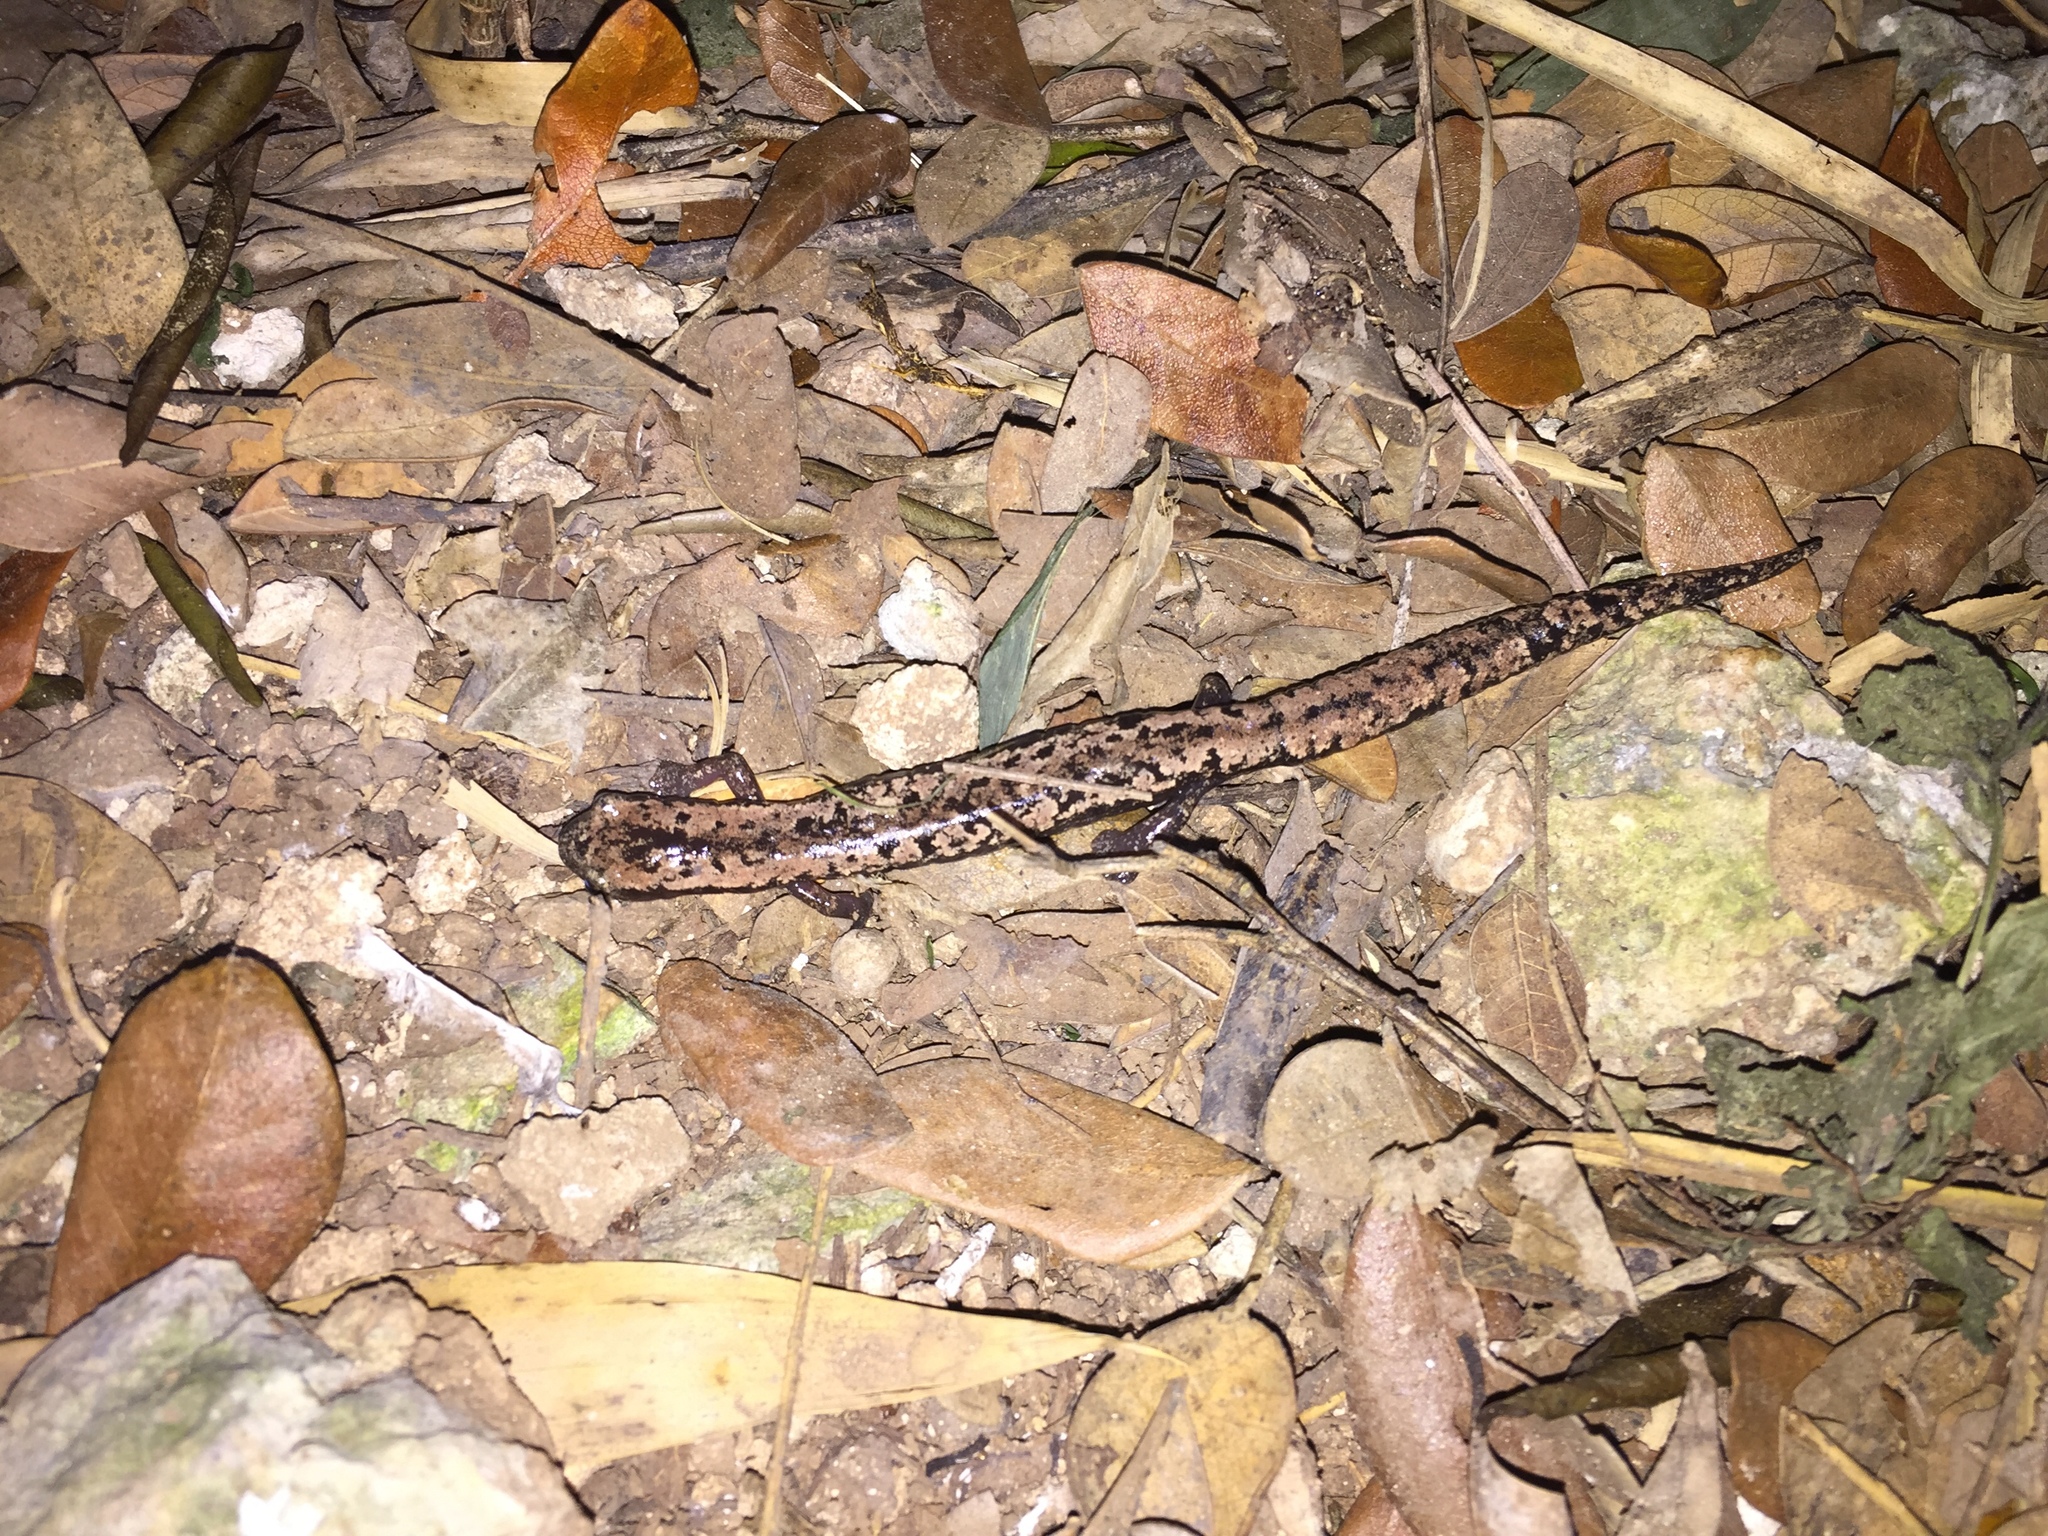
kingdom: Animalia
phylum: Chordata
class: Amphibia
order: Caudata
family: Plethodontidae
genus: Bolitoglossa
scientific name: Bolitoglossa yucatana
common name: Yucatan mushroomtongue salamander
